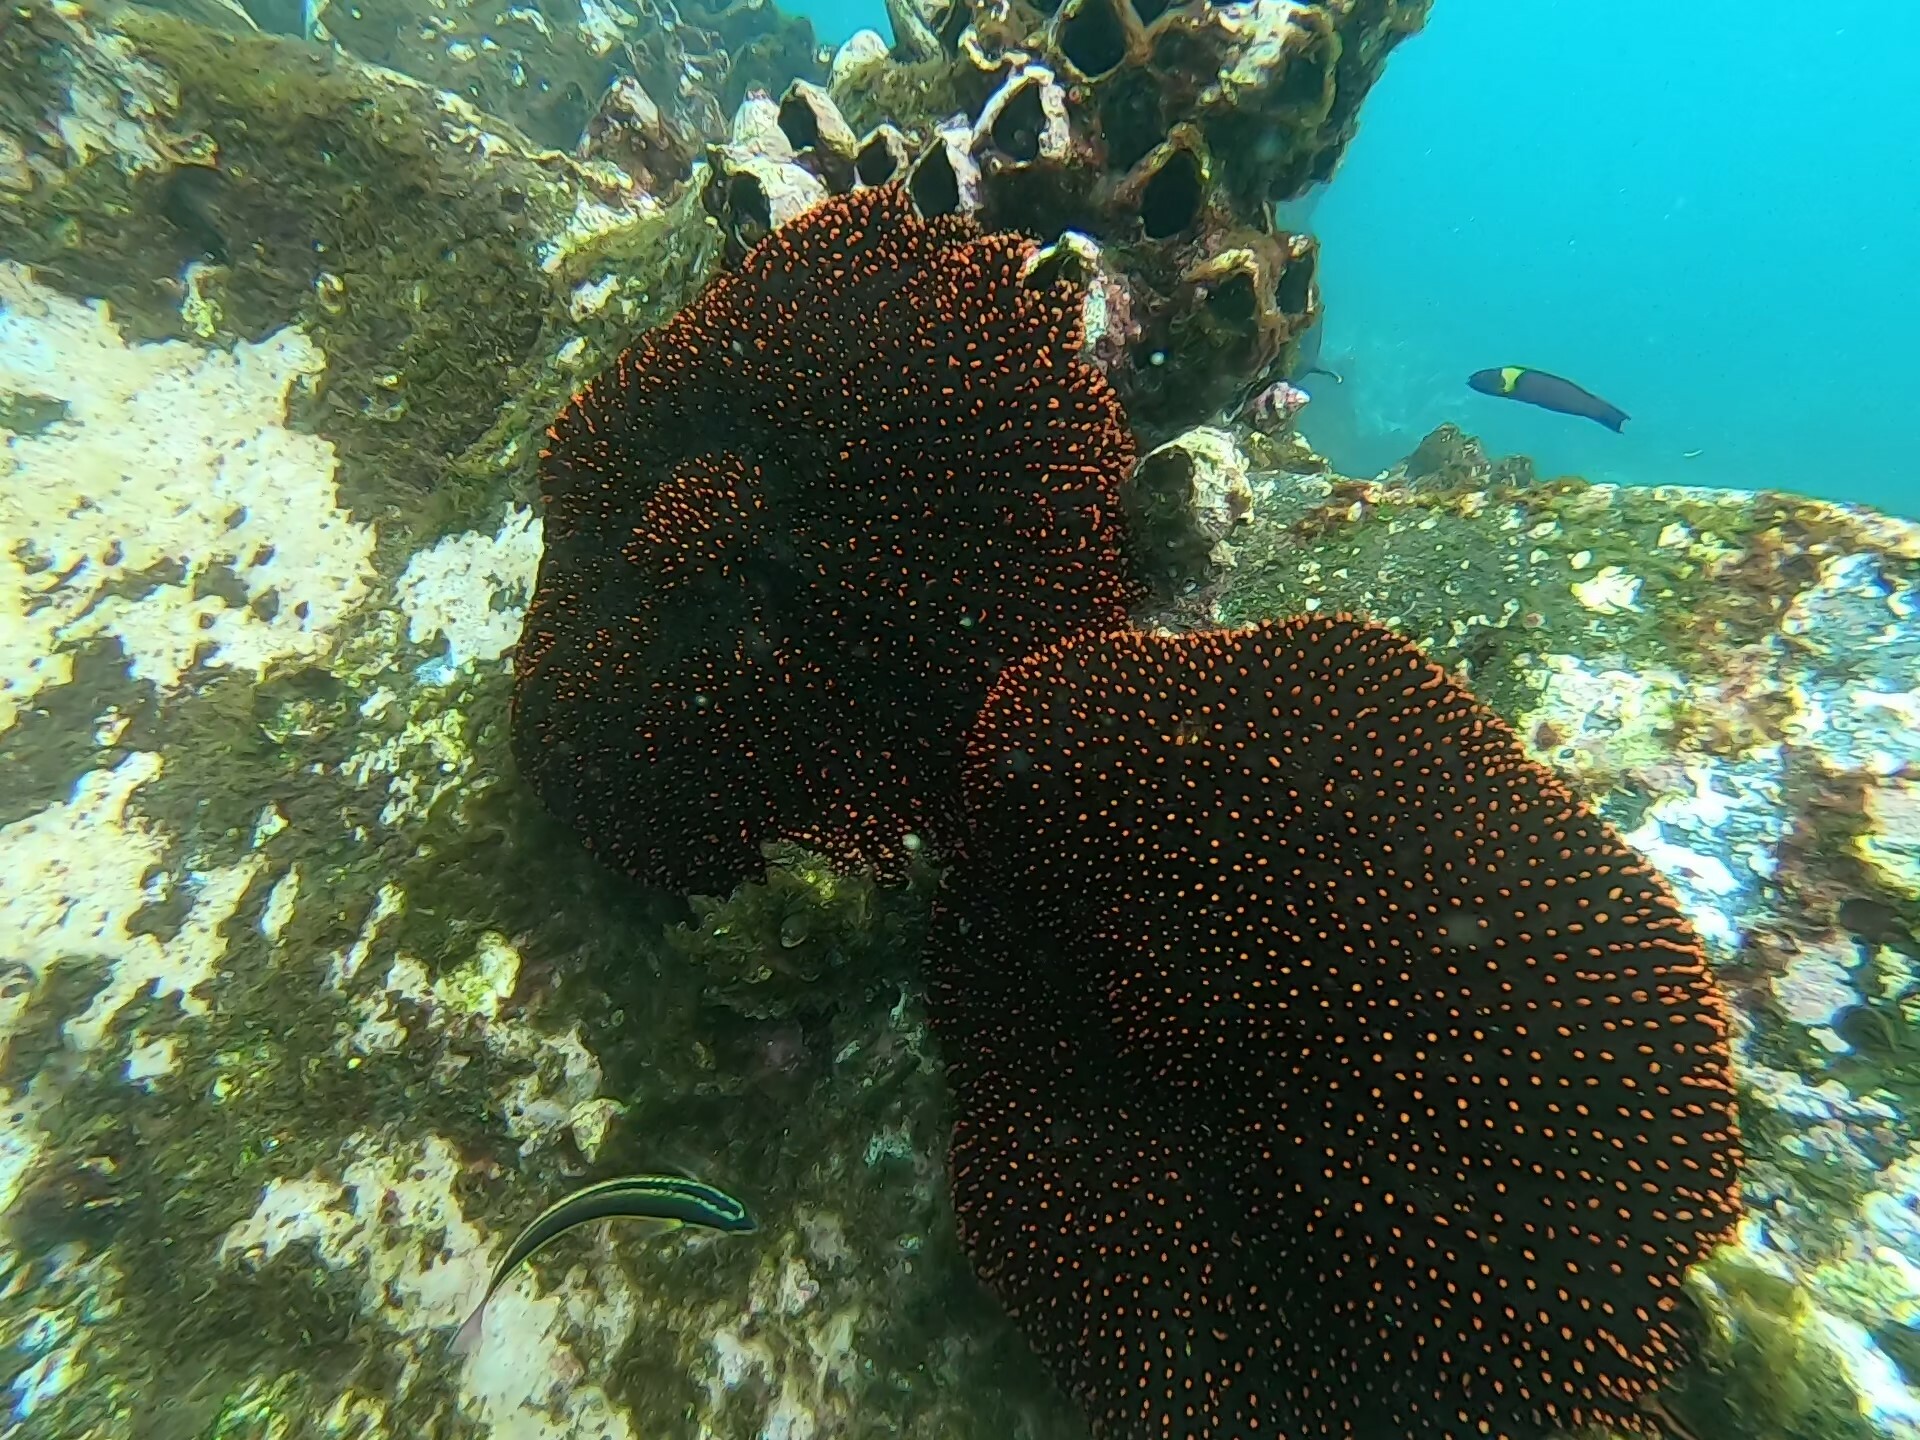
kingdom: Animalia
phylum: Echinodermata
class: Asteroidea
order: Forcipulatida
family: Heliasteridae
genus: Heliaster
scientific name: Heliaster cumingi
